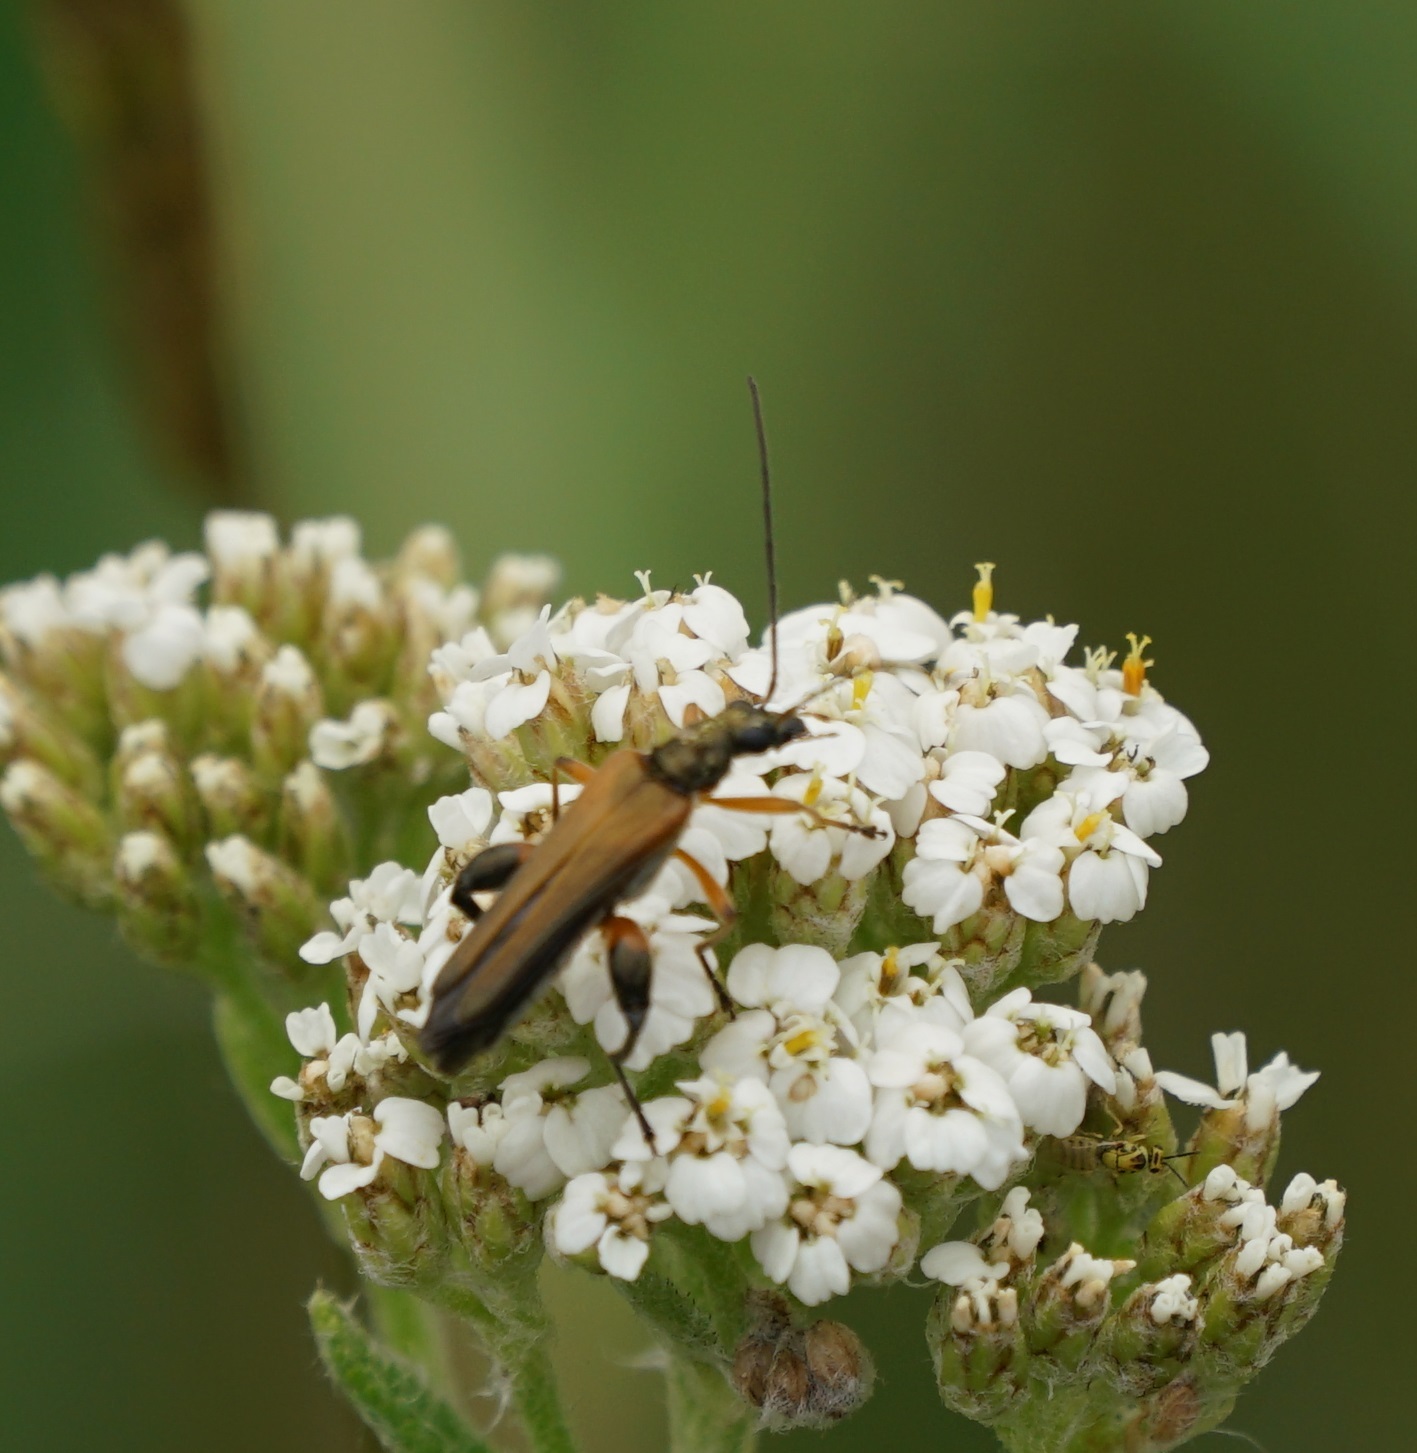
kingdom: Animalia
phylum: Arthropoda
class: Insecta
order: Coleoptera
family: Oedemeridae
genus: Oedemera
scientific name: Oedemera podagrariae
